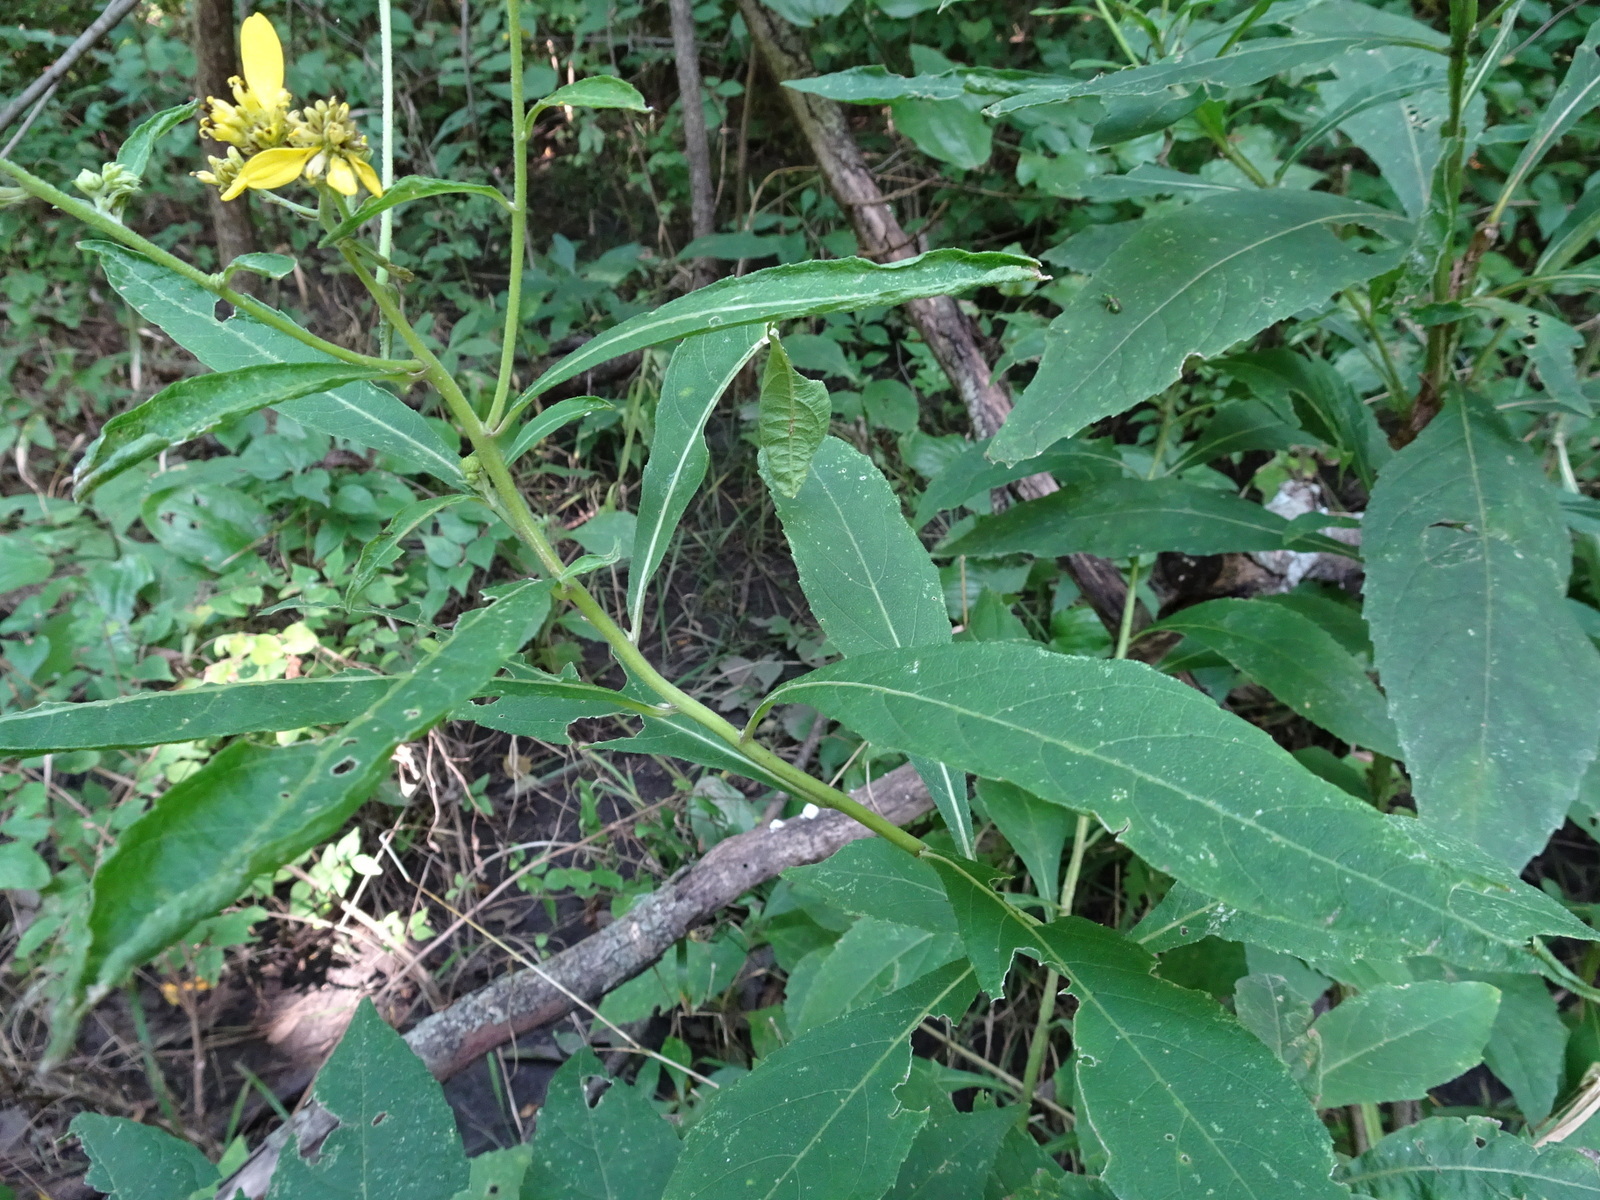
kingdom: Plantae
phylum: Tracheophyta
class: Magnoliopsida
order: Asterales
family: Asteraceae
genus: Verbesina
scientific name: Verbesina alternifolia
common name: Wingstem
